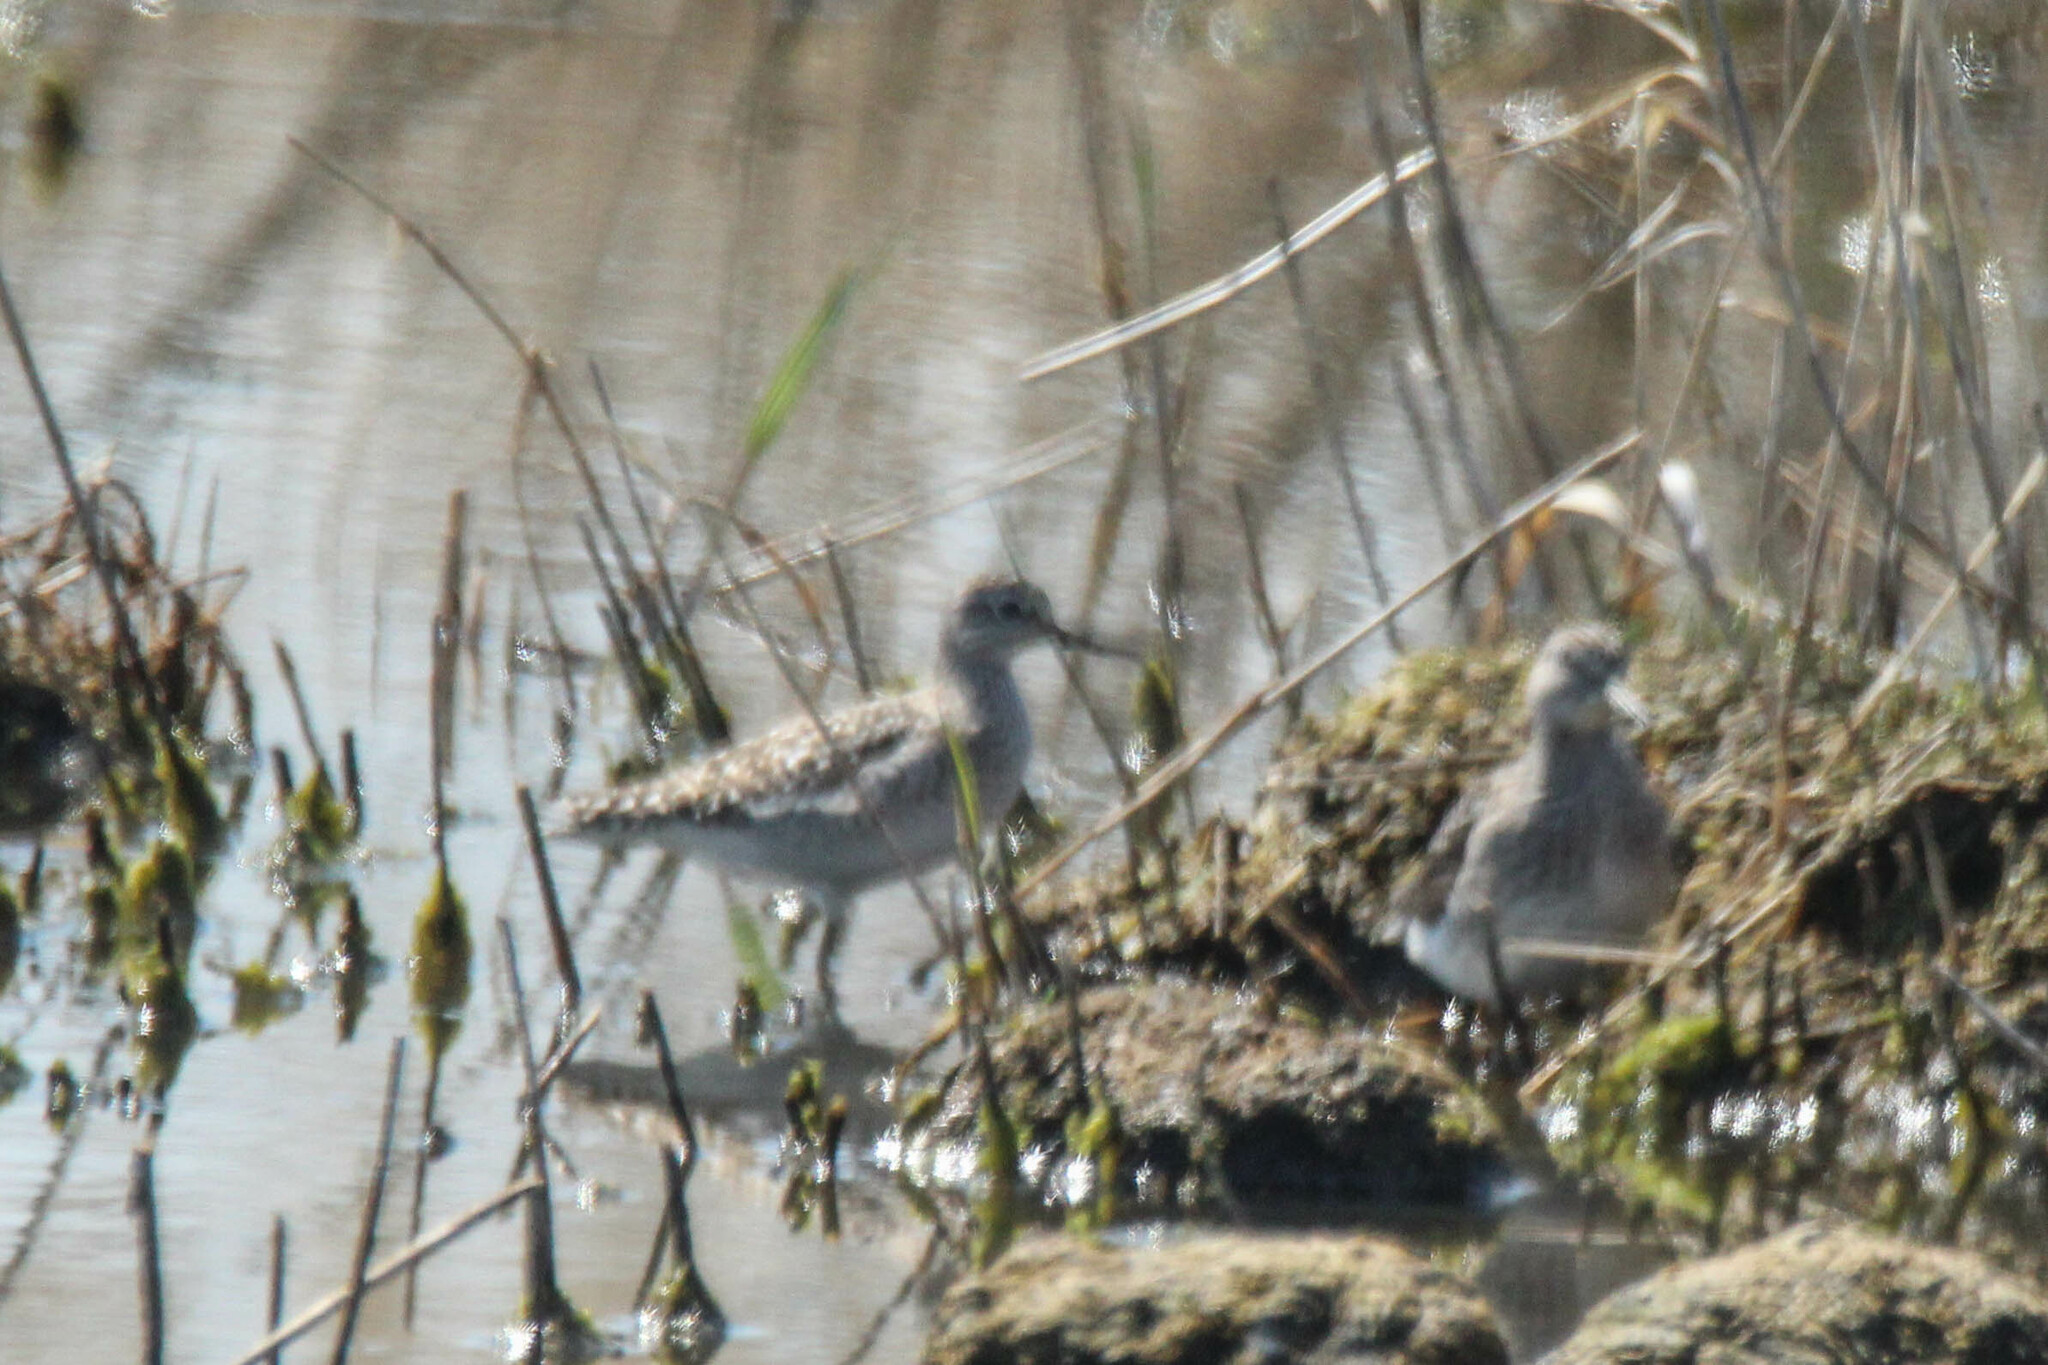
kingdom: Animalia
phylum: Chordata
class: Aves
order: Charadriiformes
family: Scolopacidae
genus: Tringa
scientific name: Tringa glareola
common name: Wood sandpiper
